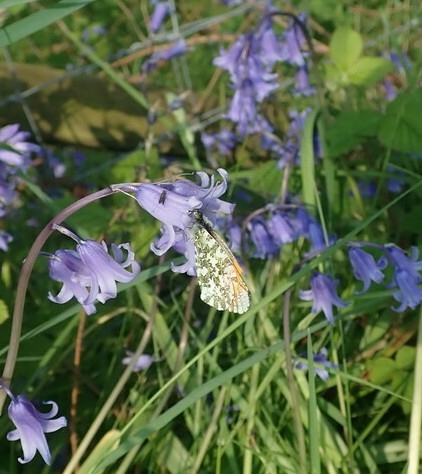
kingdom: Animalia
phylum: Arthropoda
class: Insecta
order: Lepidoptera
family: Pieridae
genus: Anthocharis
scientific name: Anthocharis cardamines
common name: Orange-tip
